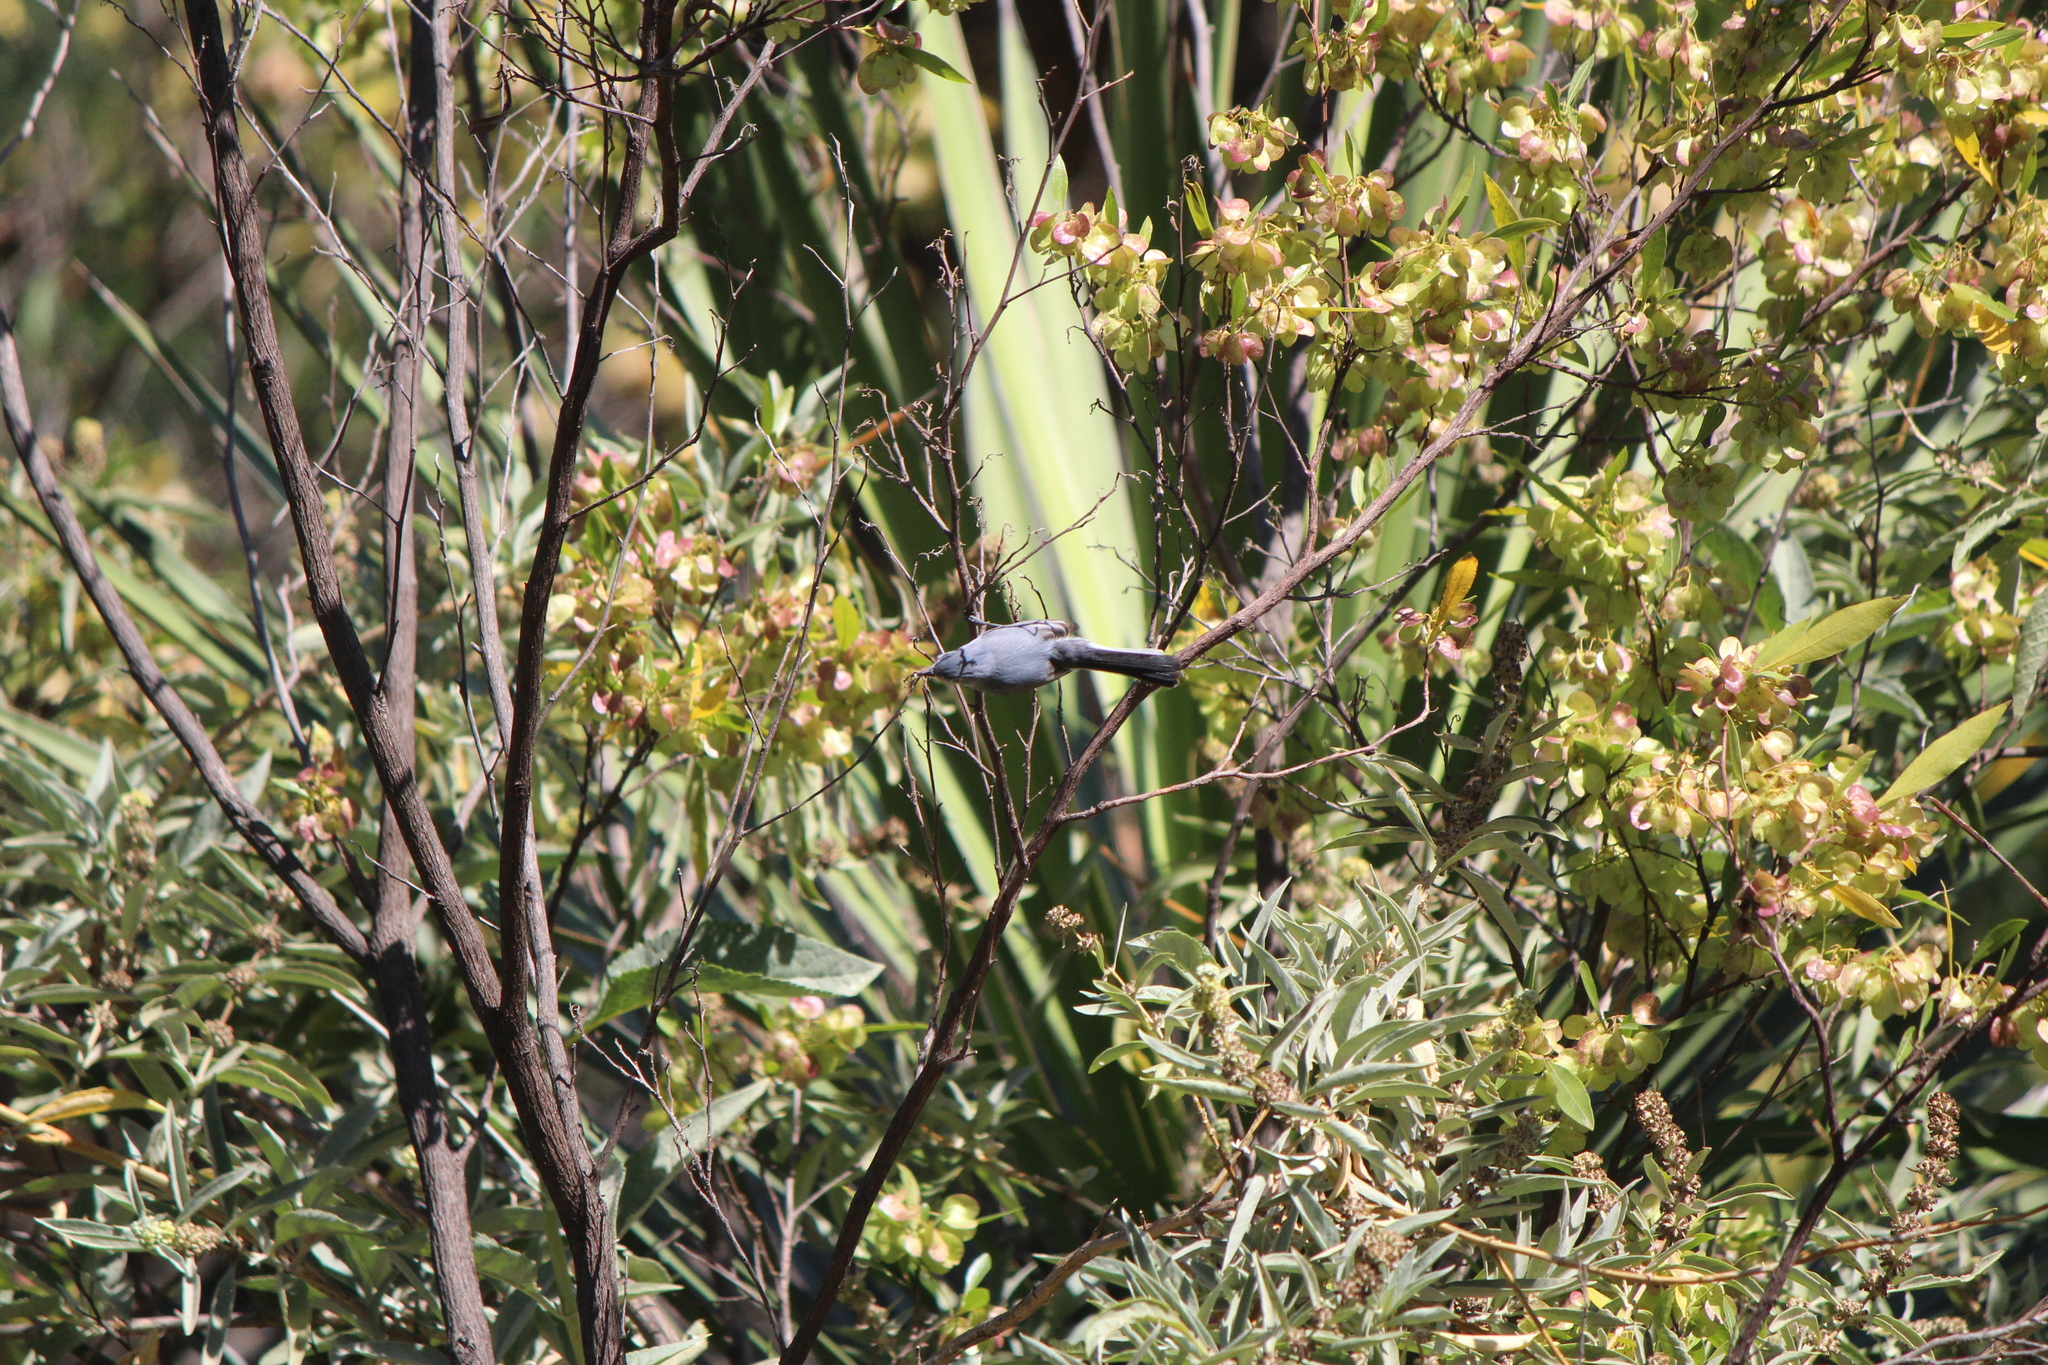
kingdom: Animalia
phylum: Chordata
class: Aves
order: Passeriformes
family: Polioptilidae
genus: Polioptila
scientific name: Polioptila caerulea
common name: Blue-gray gnatcatcher
